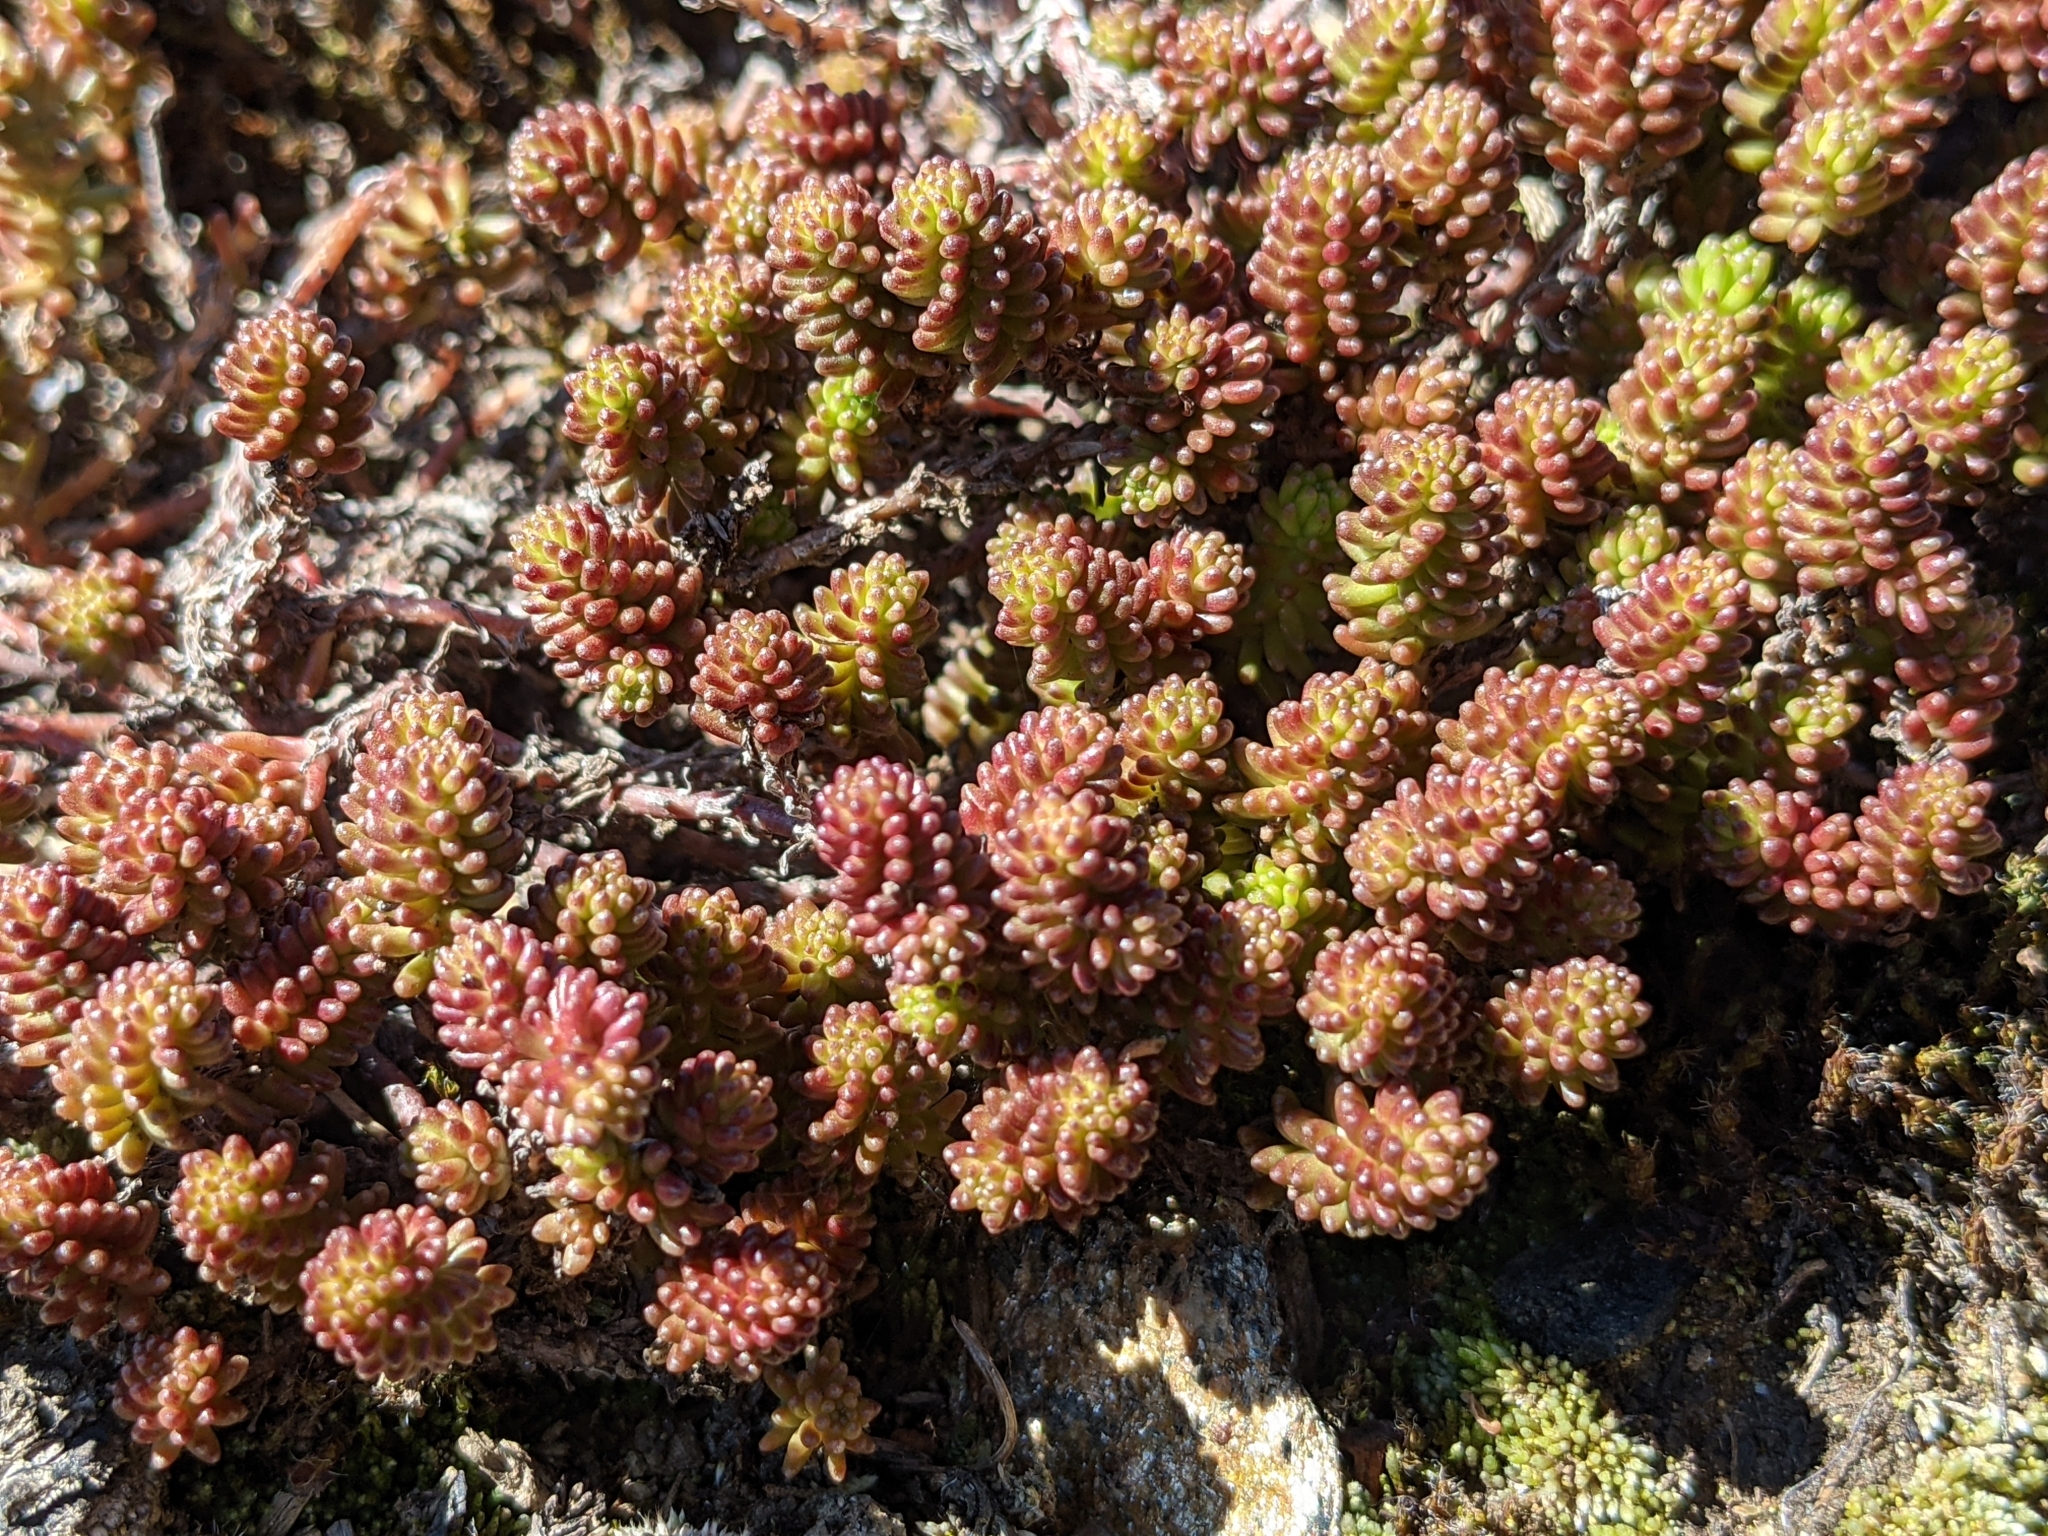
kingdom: Plantae
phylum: Tracheophyta
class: Magnoliopsida
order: Saxifragales
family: Crassulaceae
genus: Sedum
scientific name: Sedum sexangulare
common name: Tasteless stonecrop
